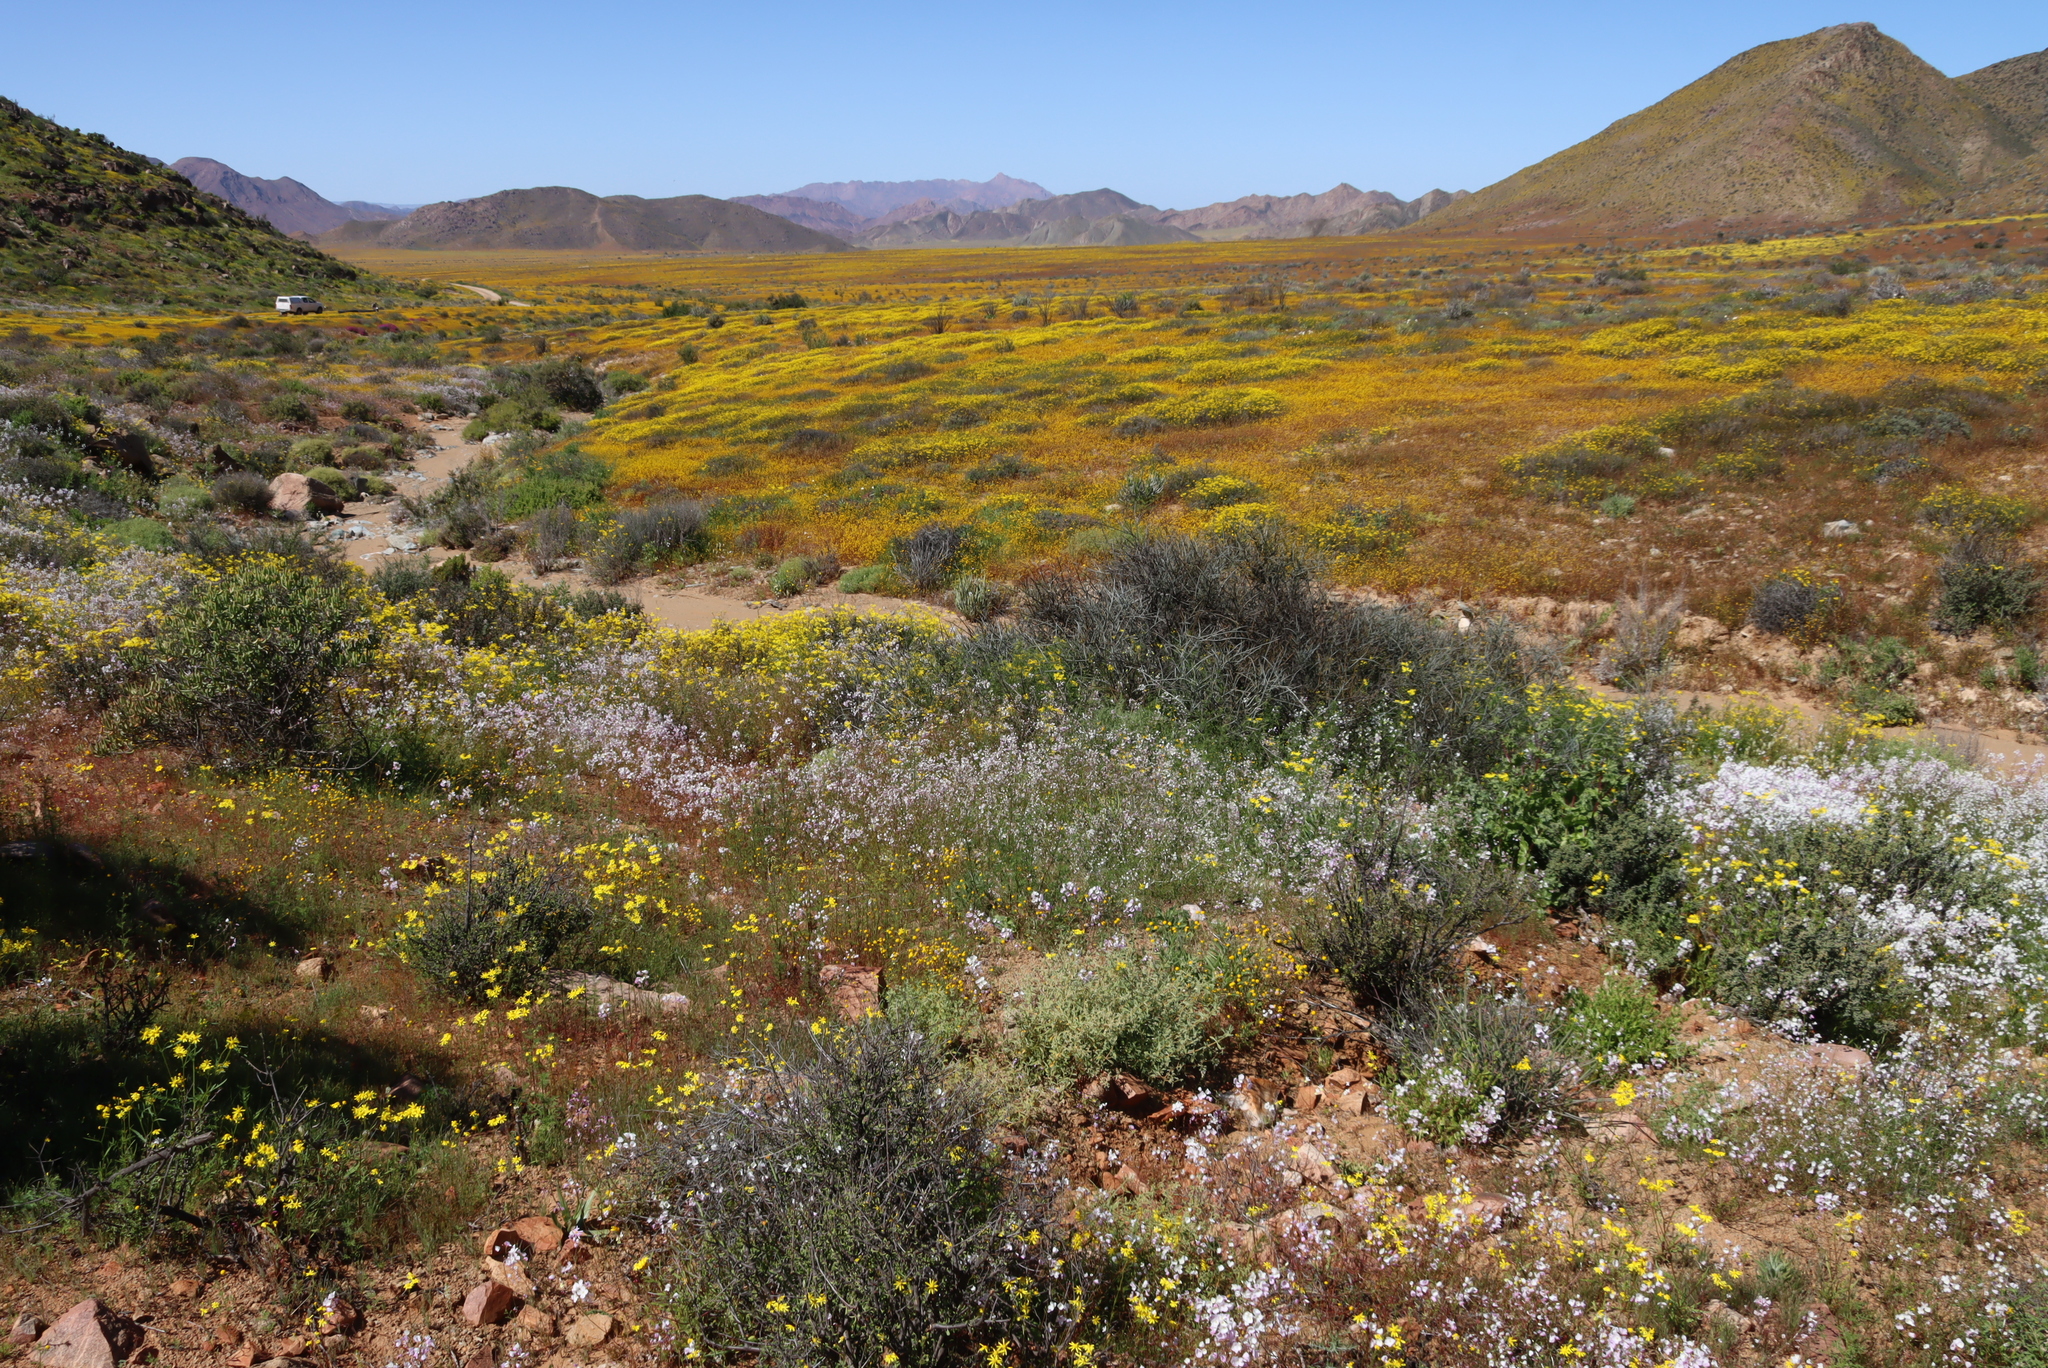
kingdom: Plantae
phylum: Tracheophyta
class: Magnoliopsida
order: Brassicales
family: Brassicaceae
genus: Heliophila
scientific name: Heliophila laciniata
